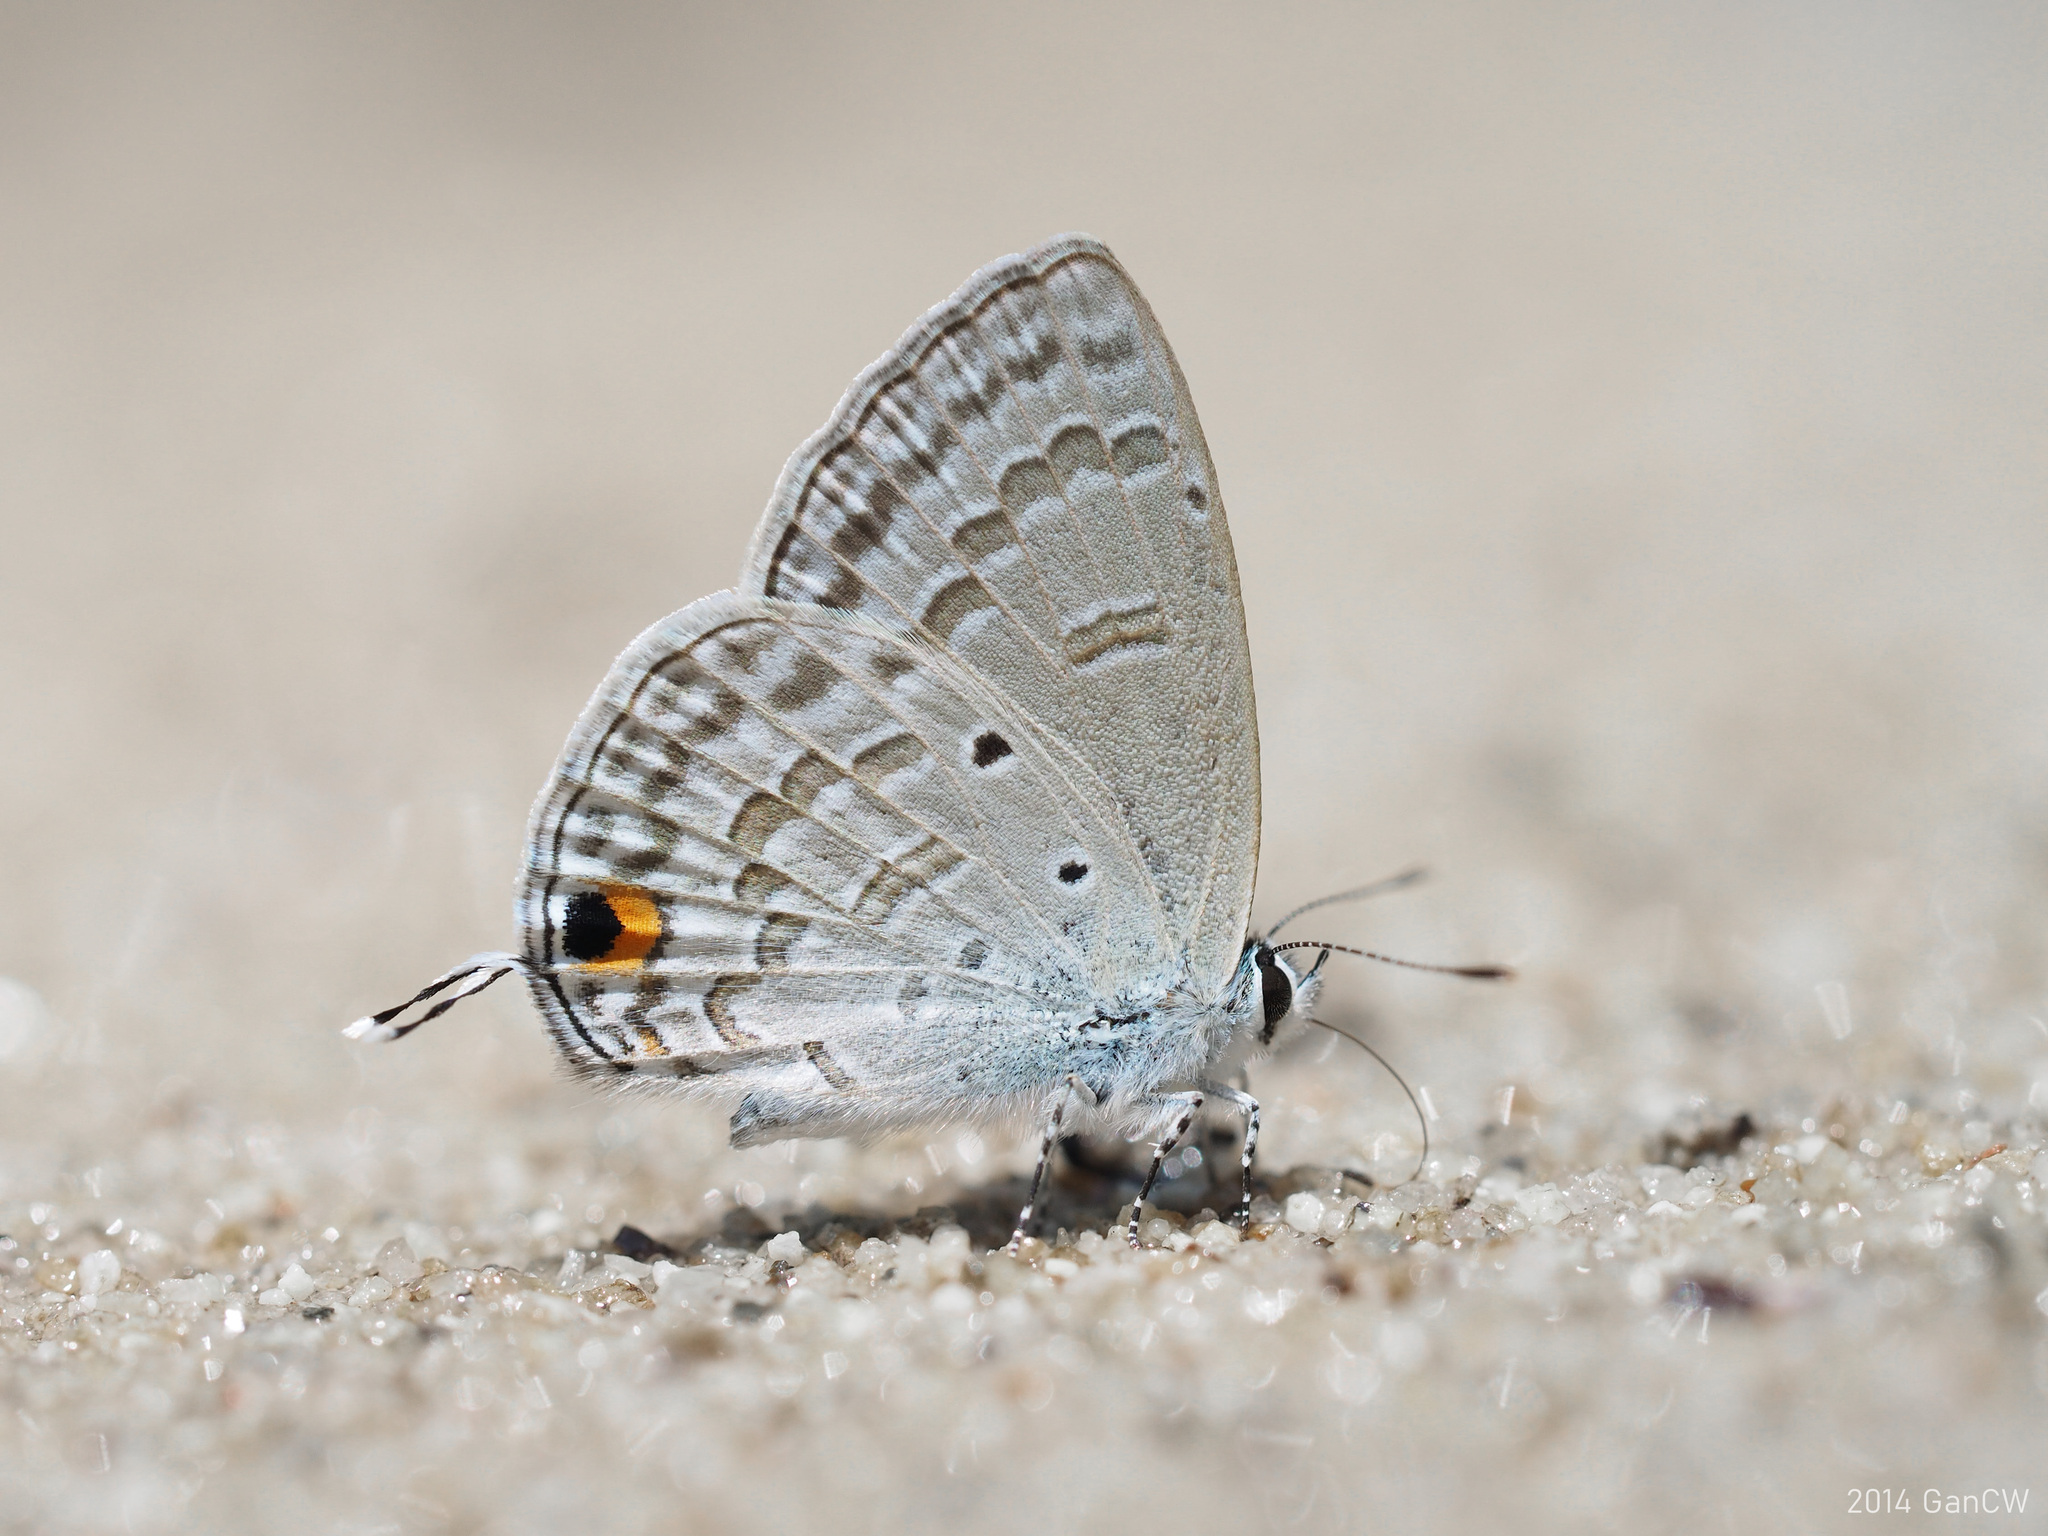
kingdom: Animalia
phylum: Arthropoda
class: Insecta
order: Lepidoptera
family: Lycaenidae
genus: Catochrysops
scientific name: Catochrysops panormus
